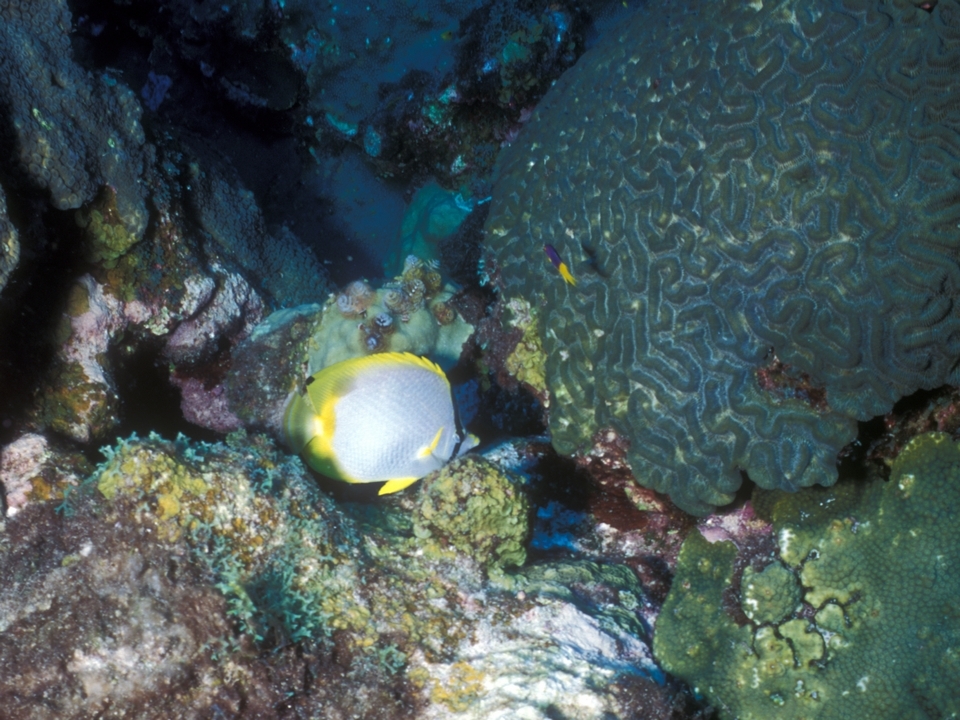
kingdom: Animalia
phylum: Chordata
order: Perciformes
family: Chaetodontidae
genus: Chaetodon
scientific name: Chaetodon ocellatus
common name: Spotfin butterflyfish
